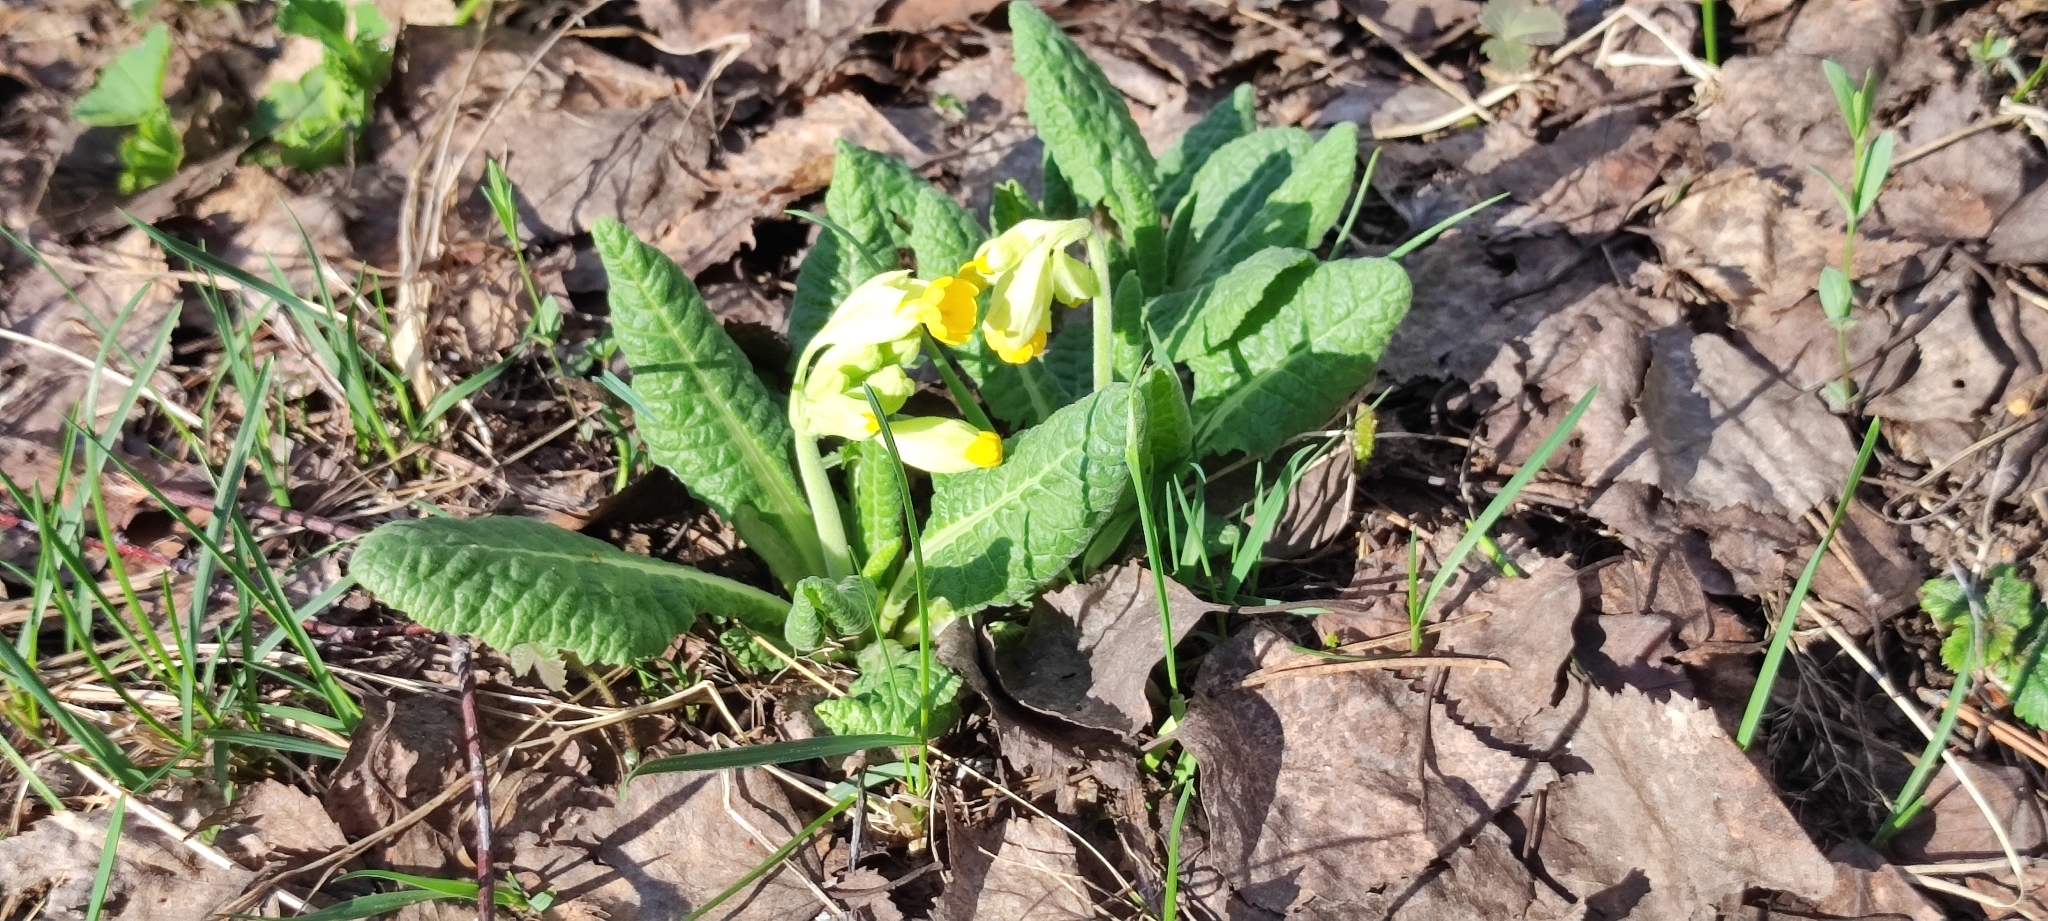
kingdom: Plantae
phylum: Tracheophyta
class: Magnoliopsida
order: Ericales
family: Primulaceae
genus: Primula
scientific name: Primula veris
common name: Cowslip
